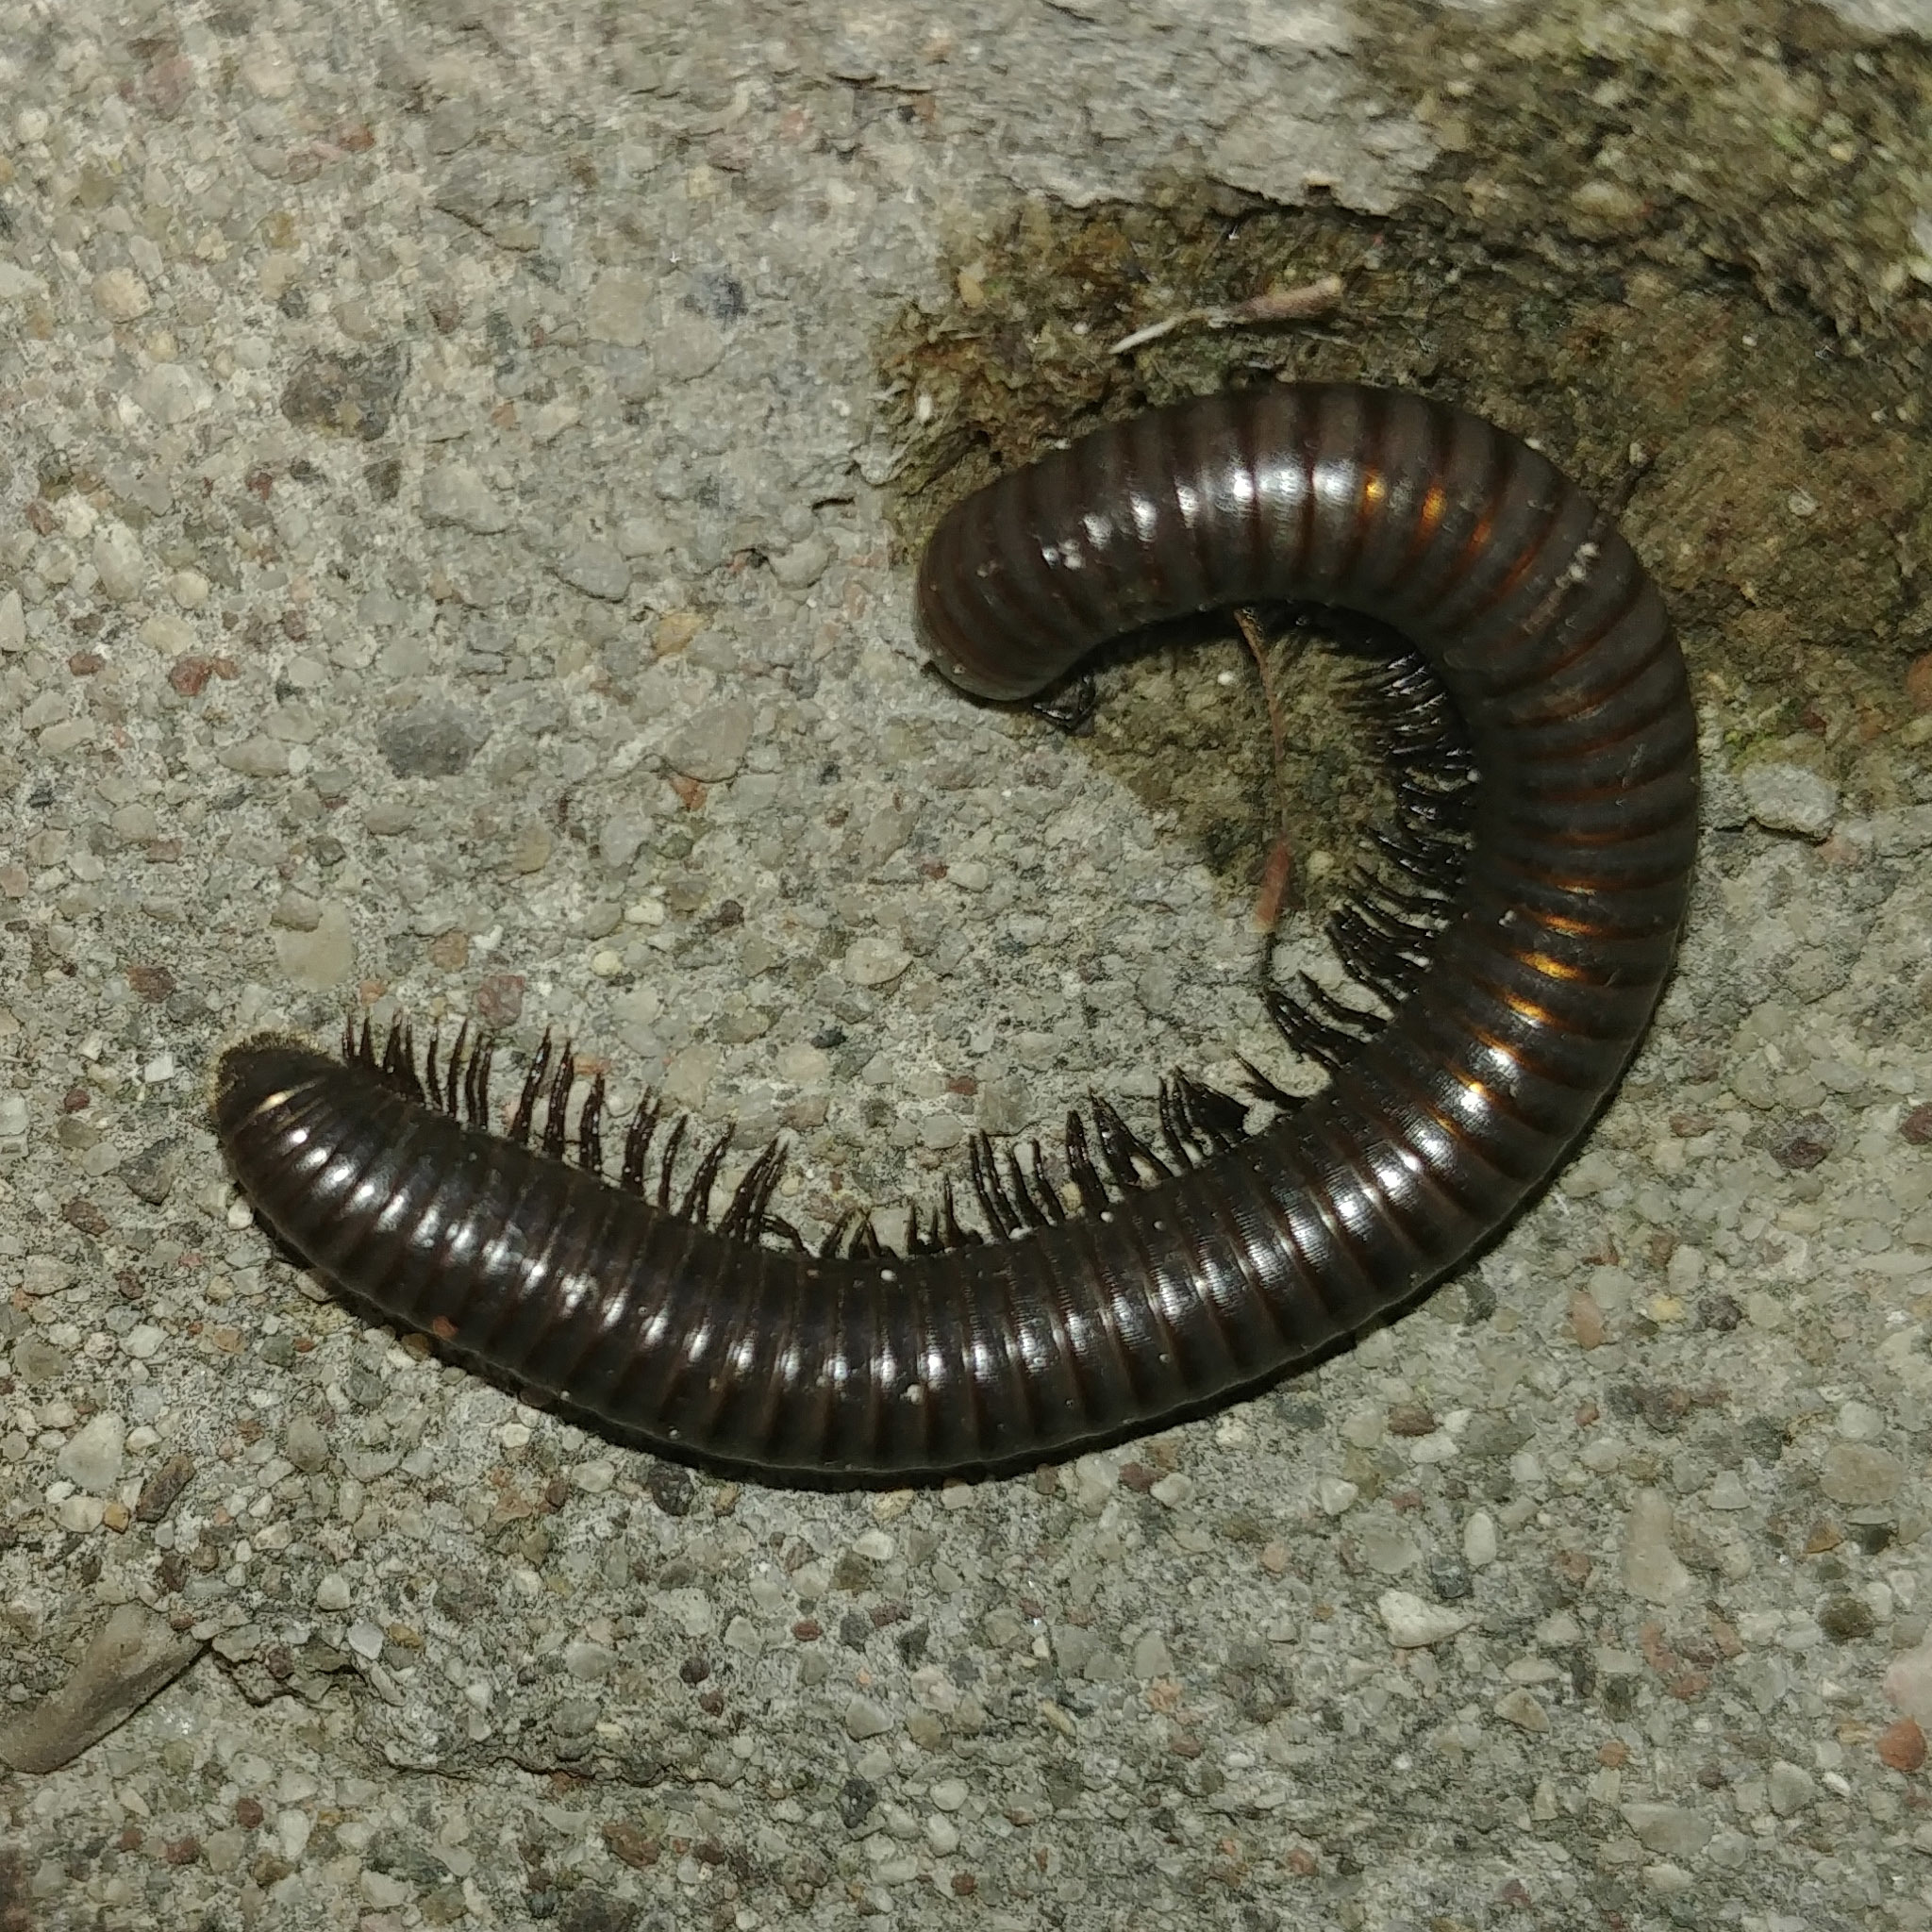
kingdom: Animalia
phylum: Arthropoda
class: Diplopoda
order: Julida
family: Julidae
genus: Pachyiulus
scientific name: Pachyiulus varius
